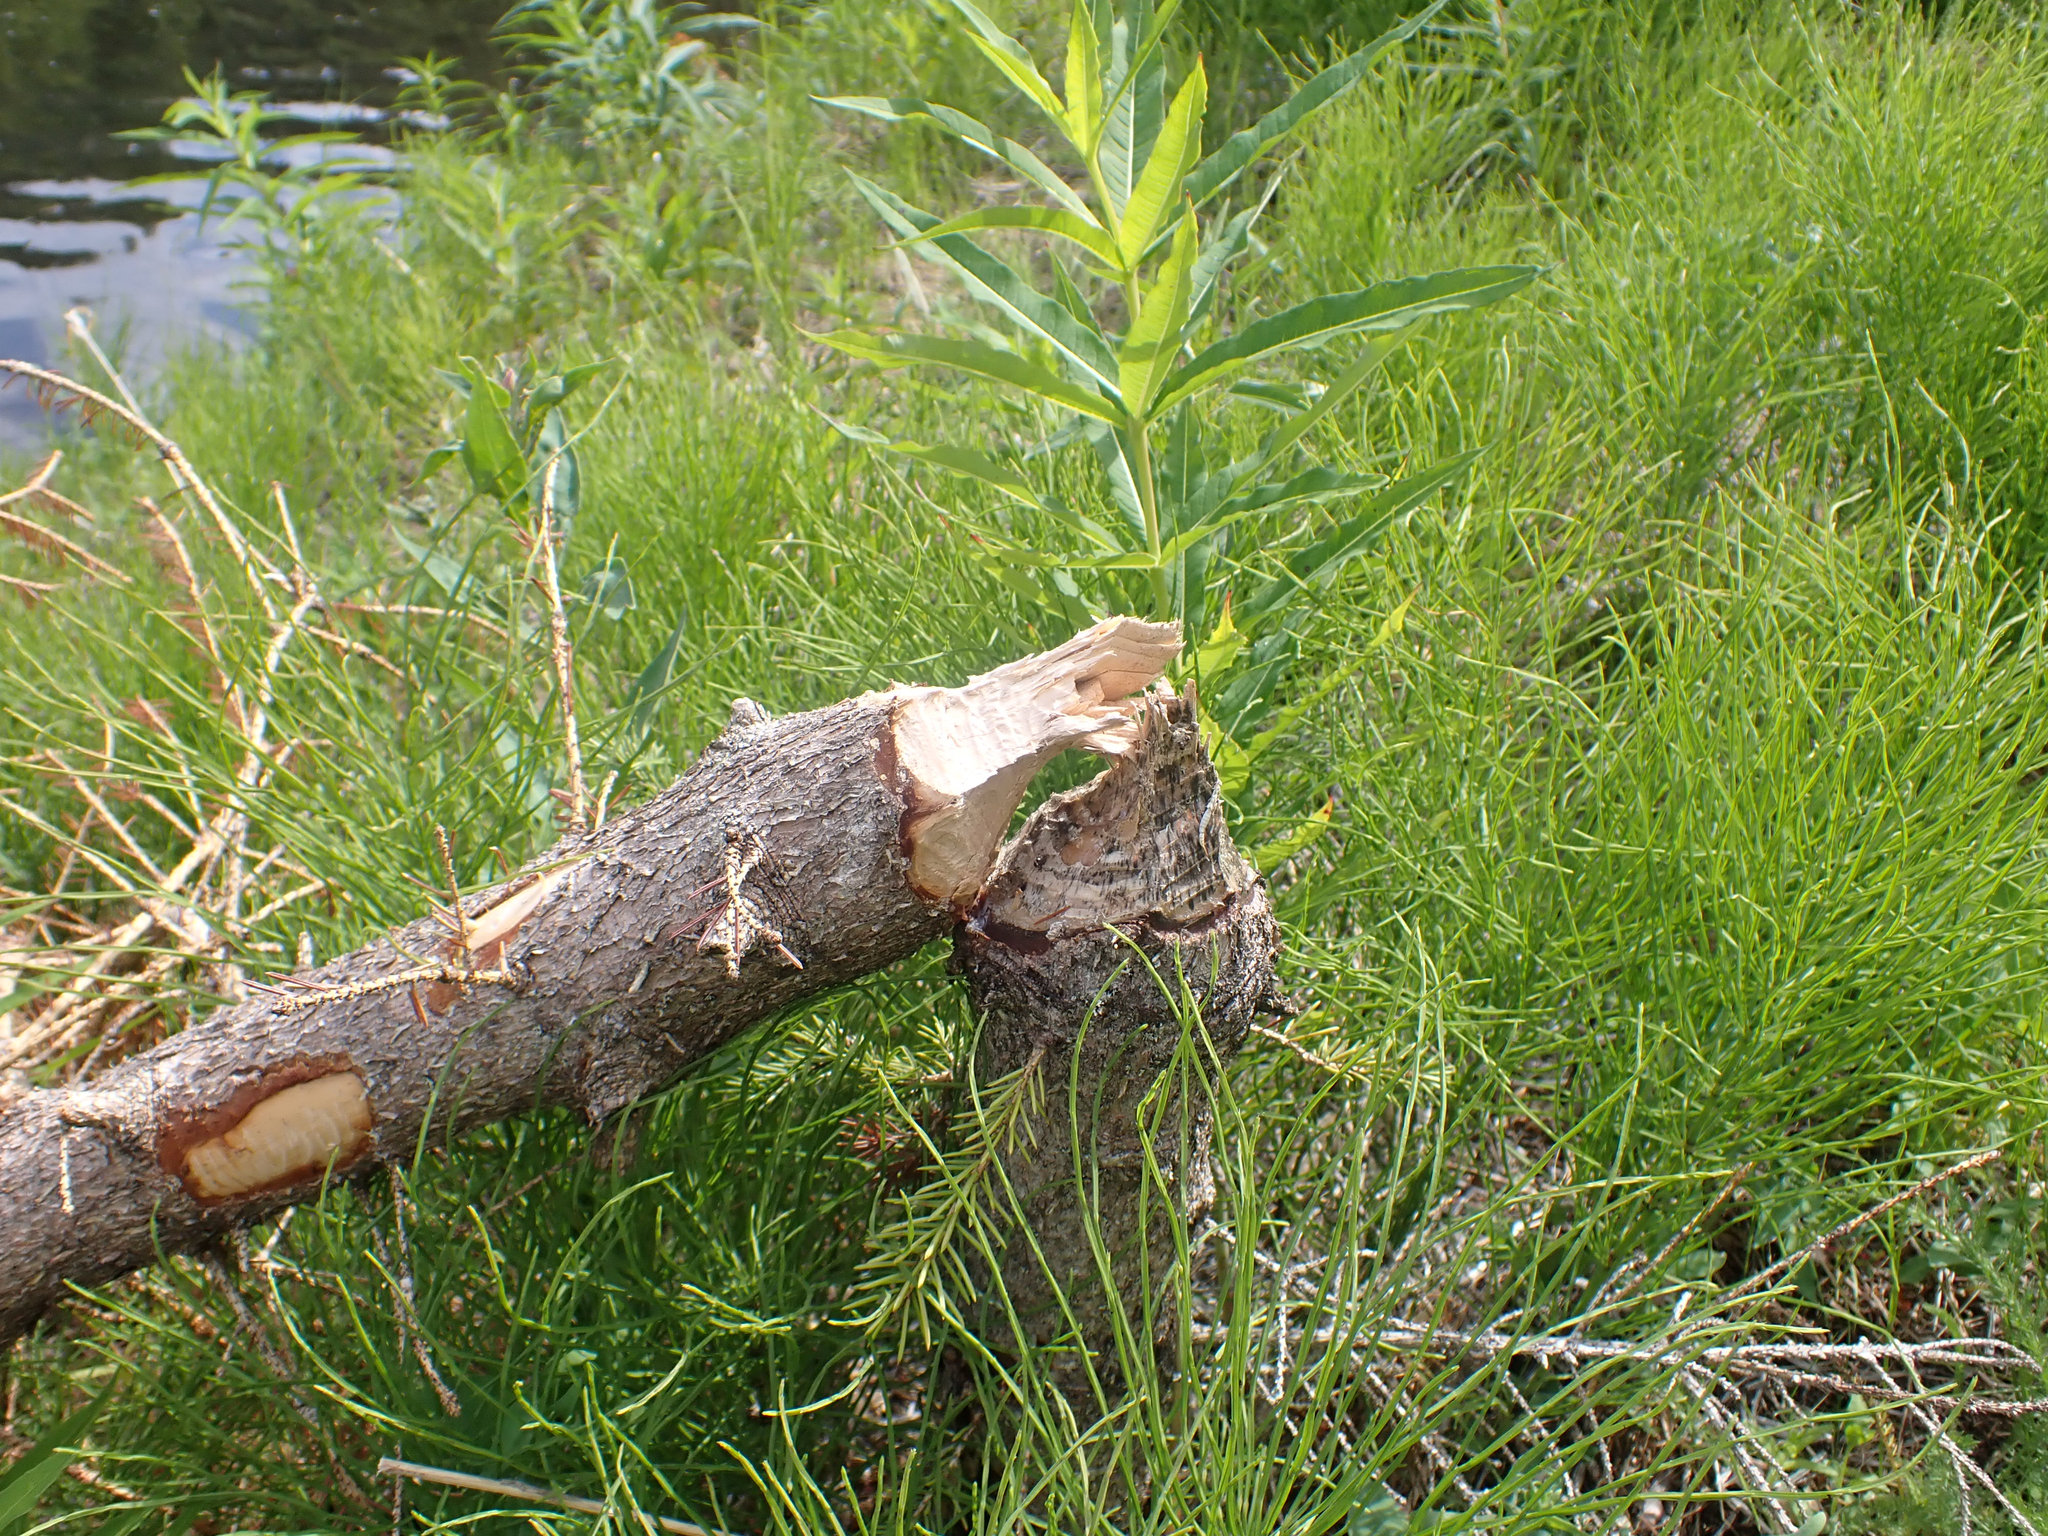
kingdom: Animalia
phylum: Chordata
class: Mammalia
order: Rodentia
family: Castoridae
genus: Castor
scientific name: Castor canadensis
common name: American beaver
